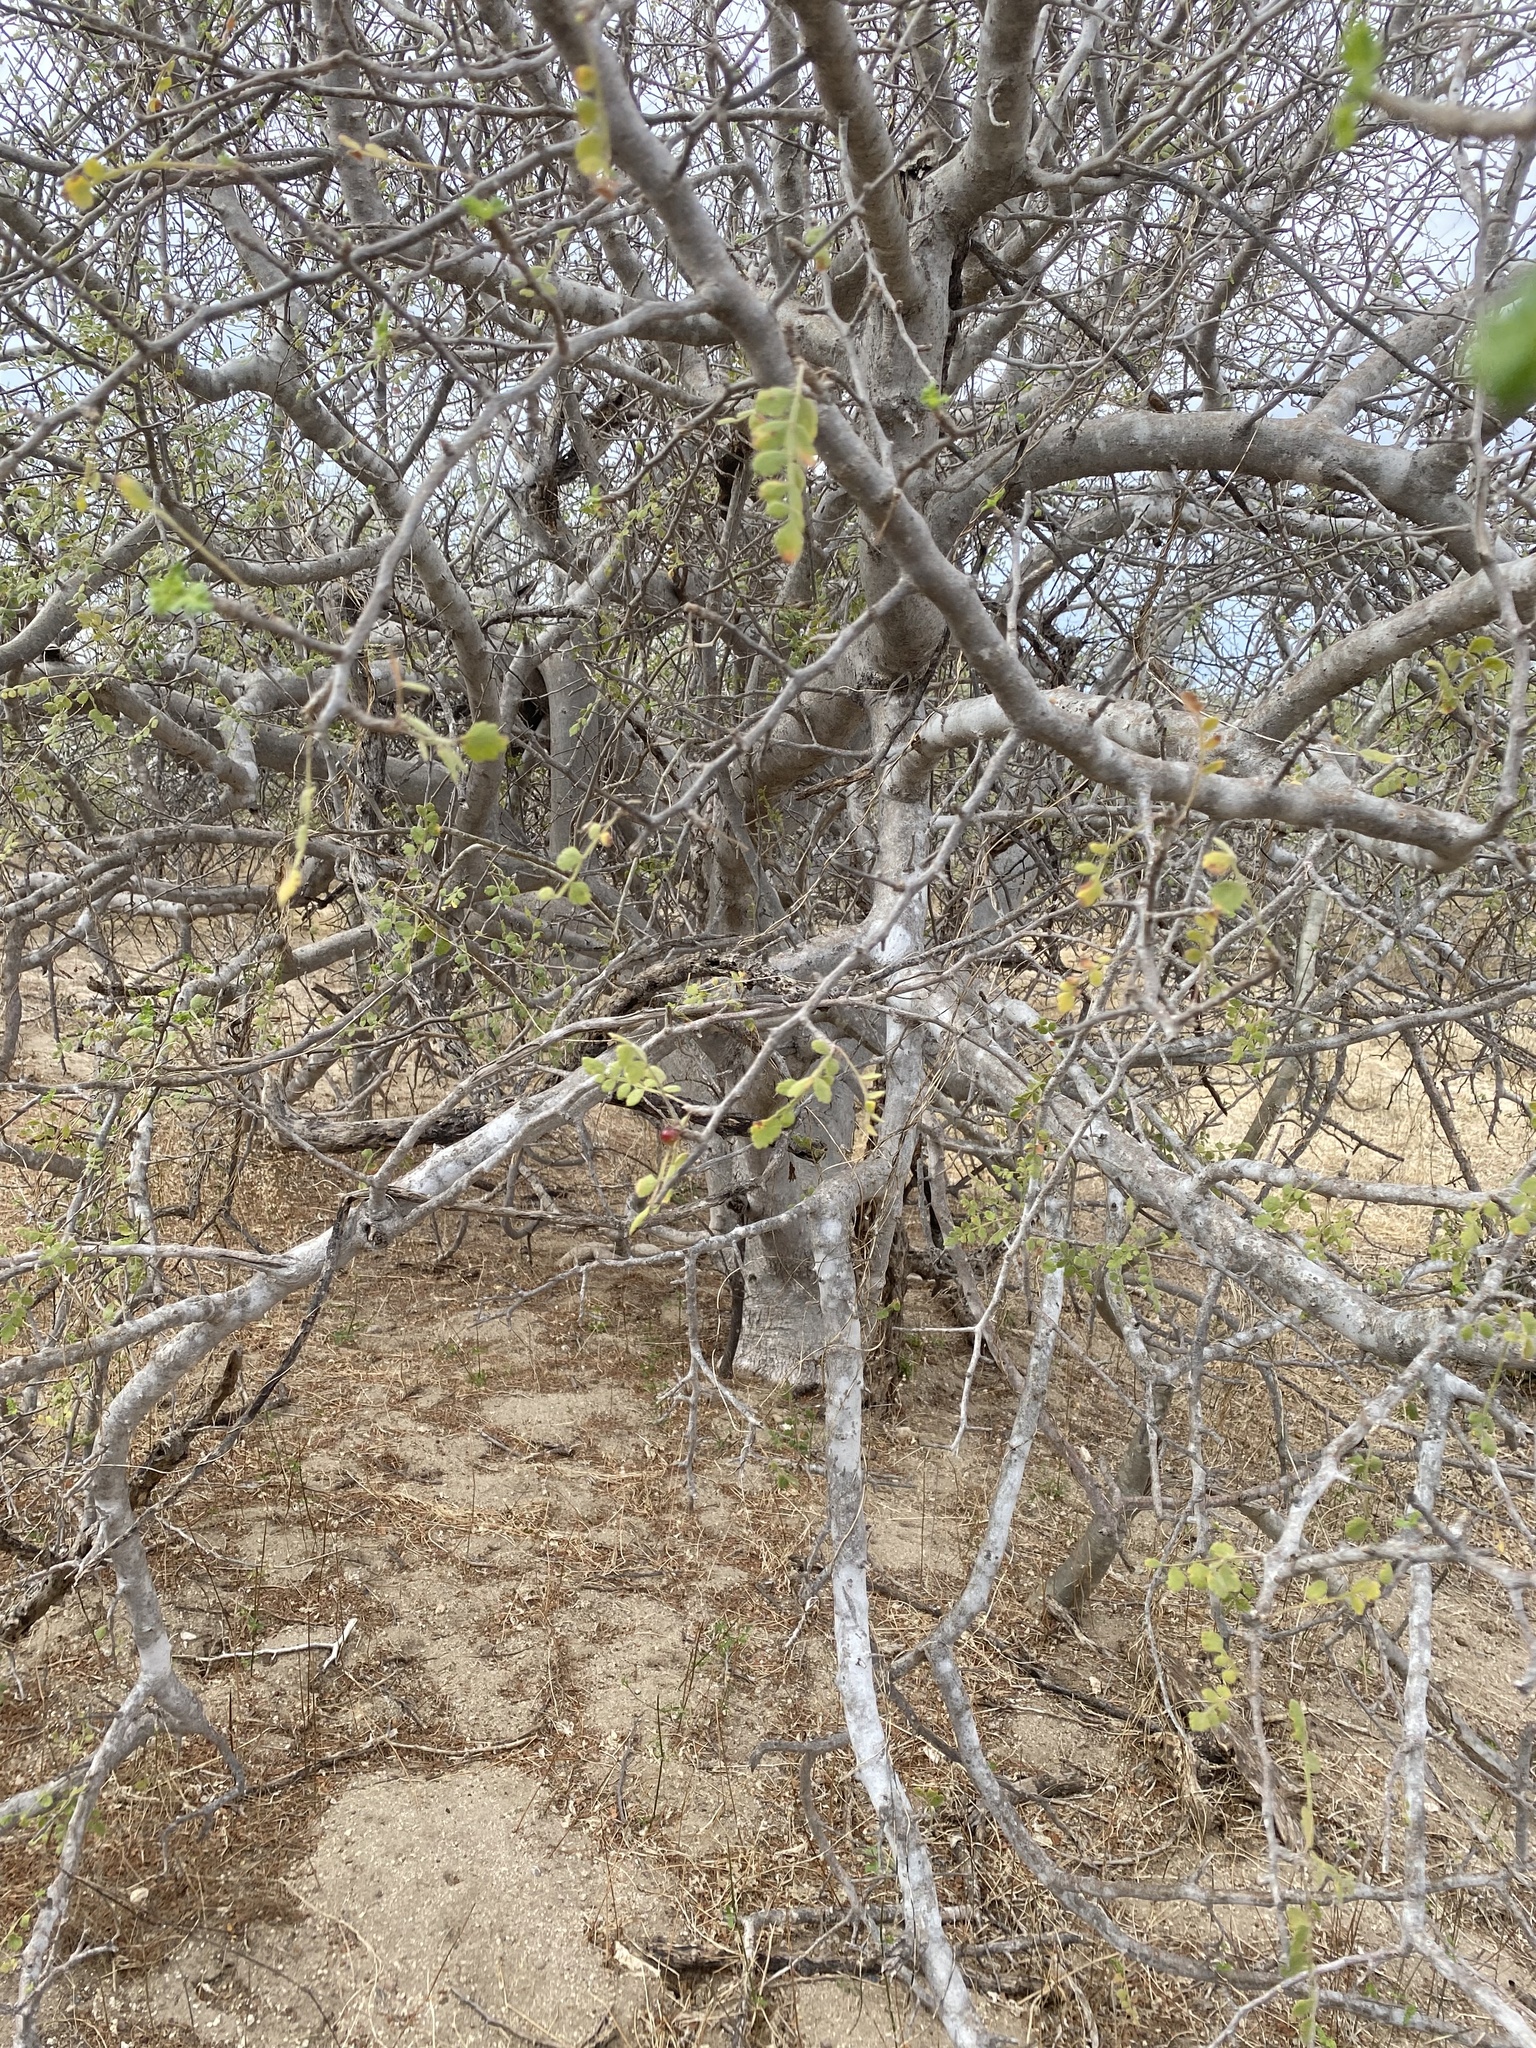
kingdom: Plantae
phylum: Tracheophyta
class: Magnoliopsida
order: Sapindales
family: Burseraceae
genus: Bursera
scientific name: Bursera filicifolia
